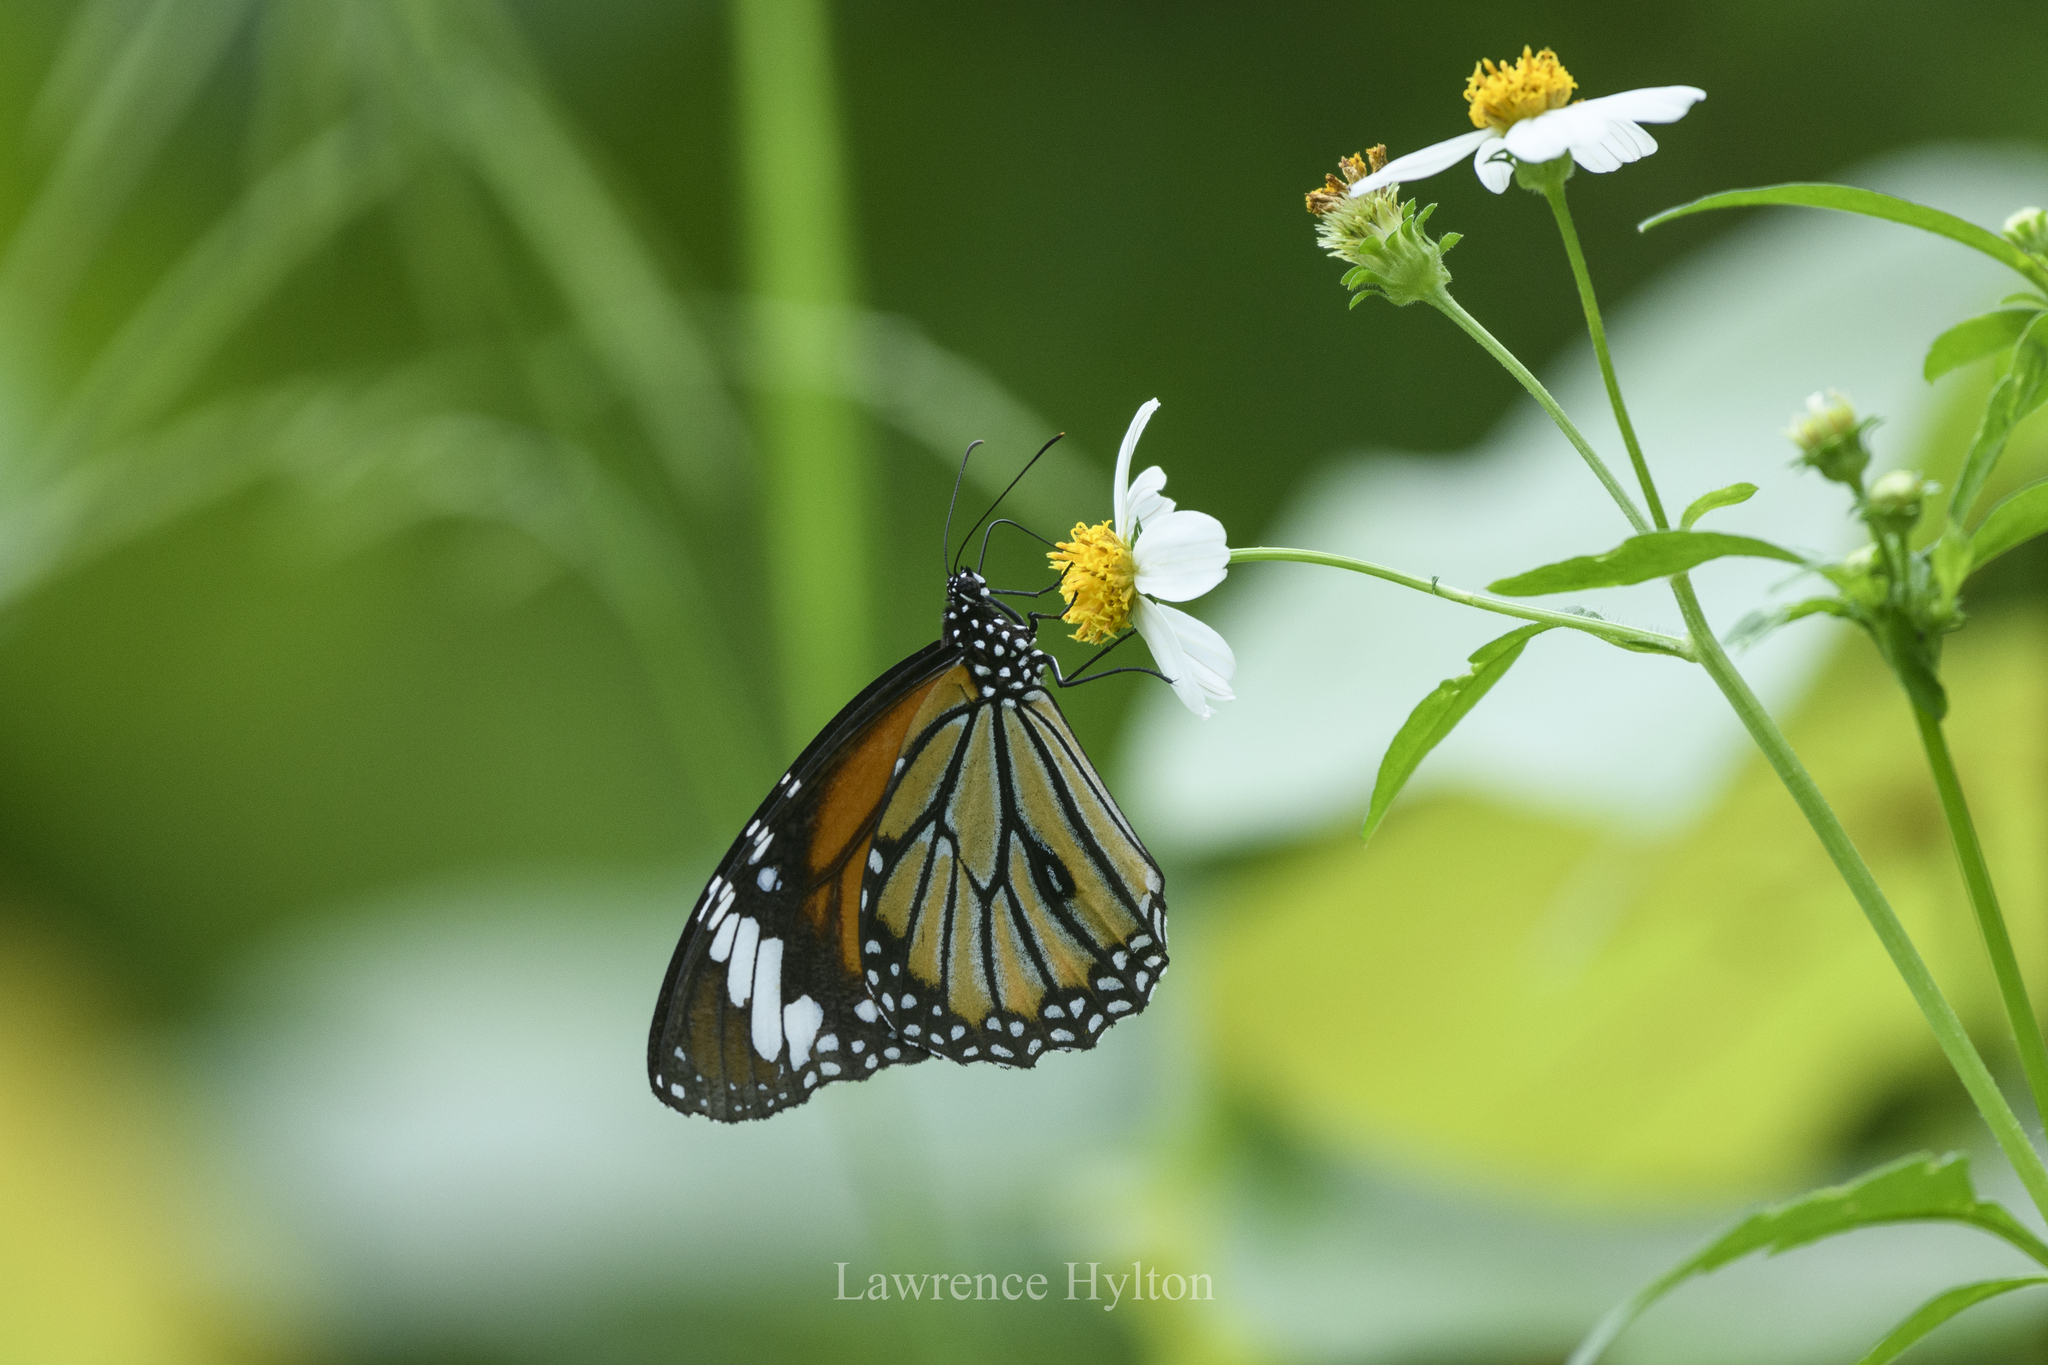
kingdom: Animalia
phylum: Arthropoda
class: Insecta
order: Lepidoptera
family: Nymphalidae
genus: Danaus
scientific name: Danaus genutia
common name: Common tiger butterfly
